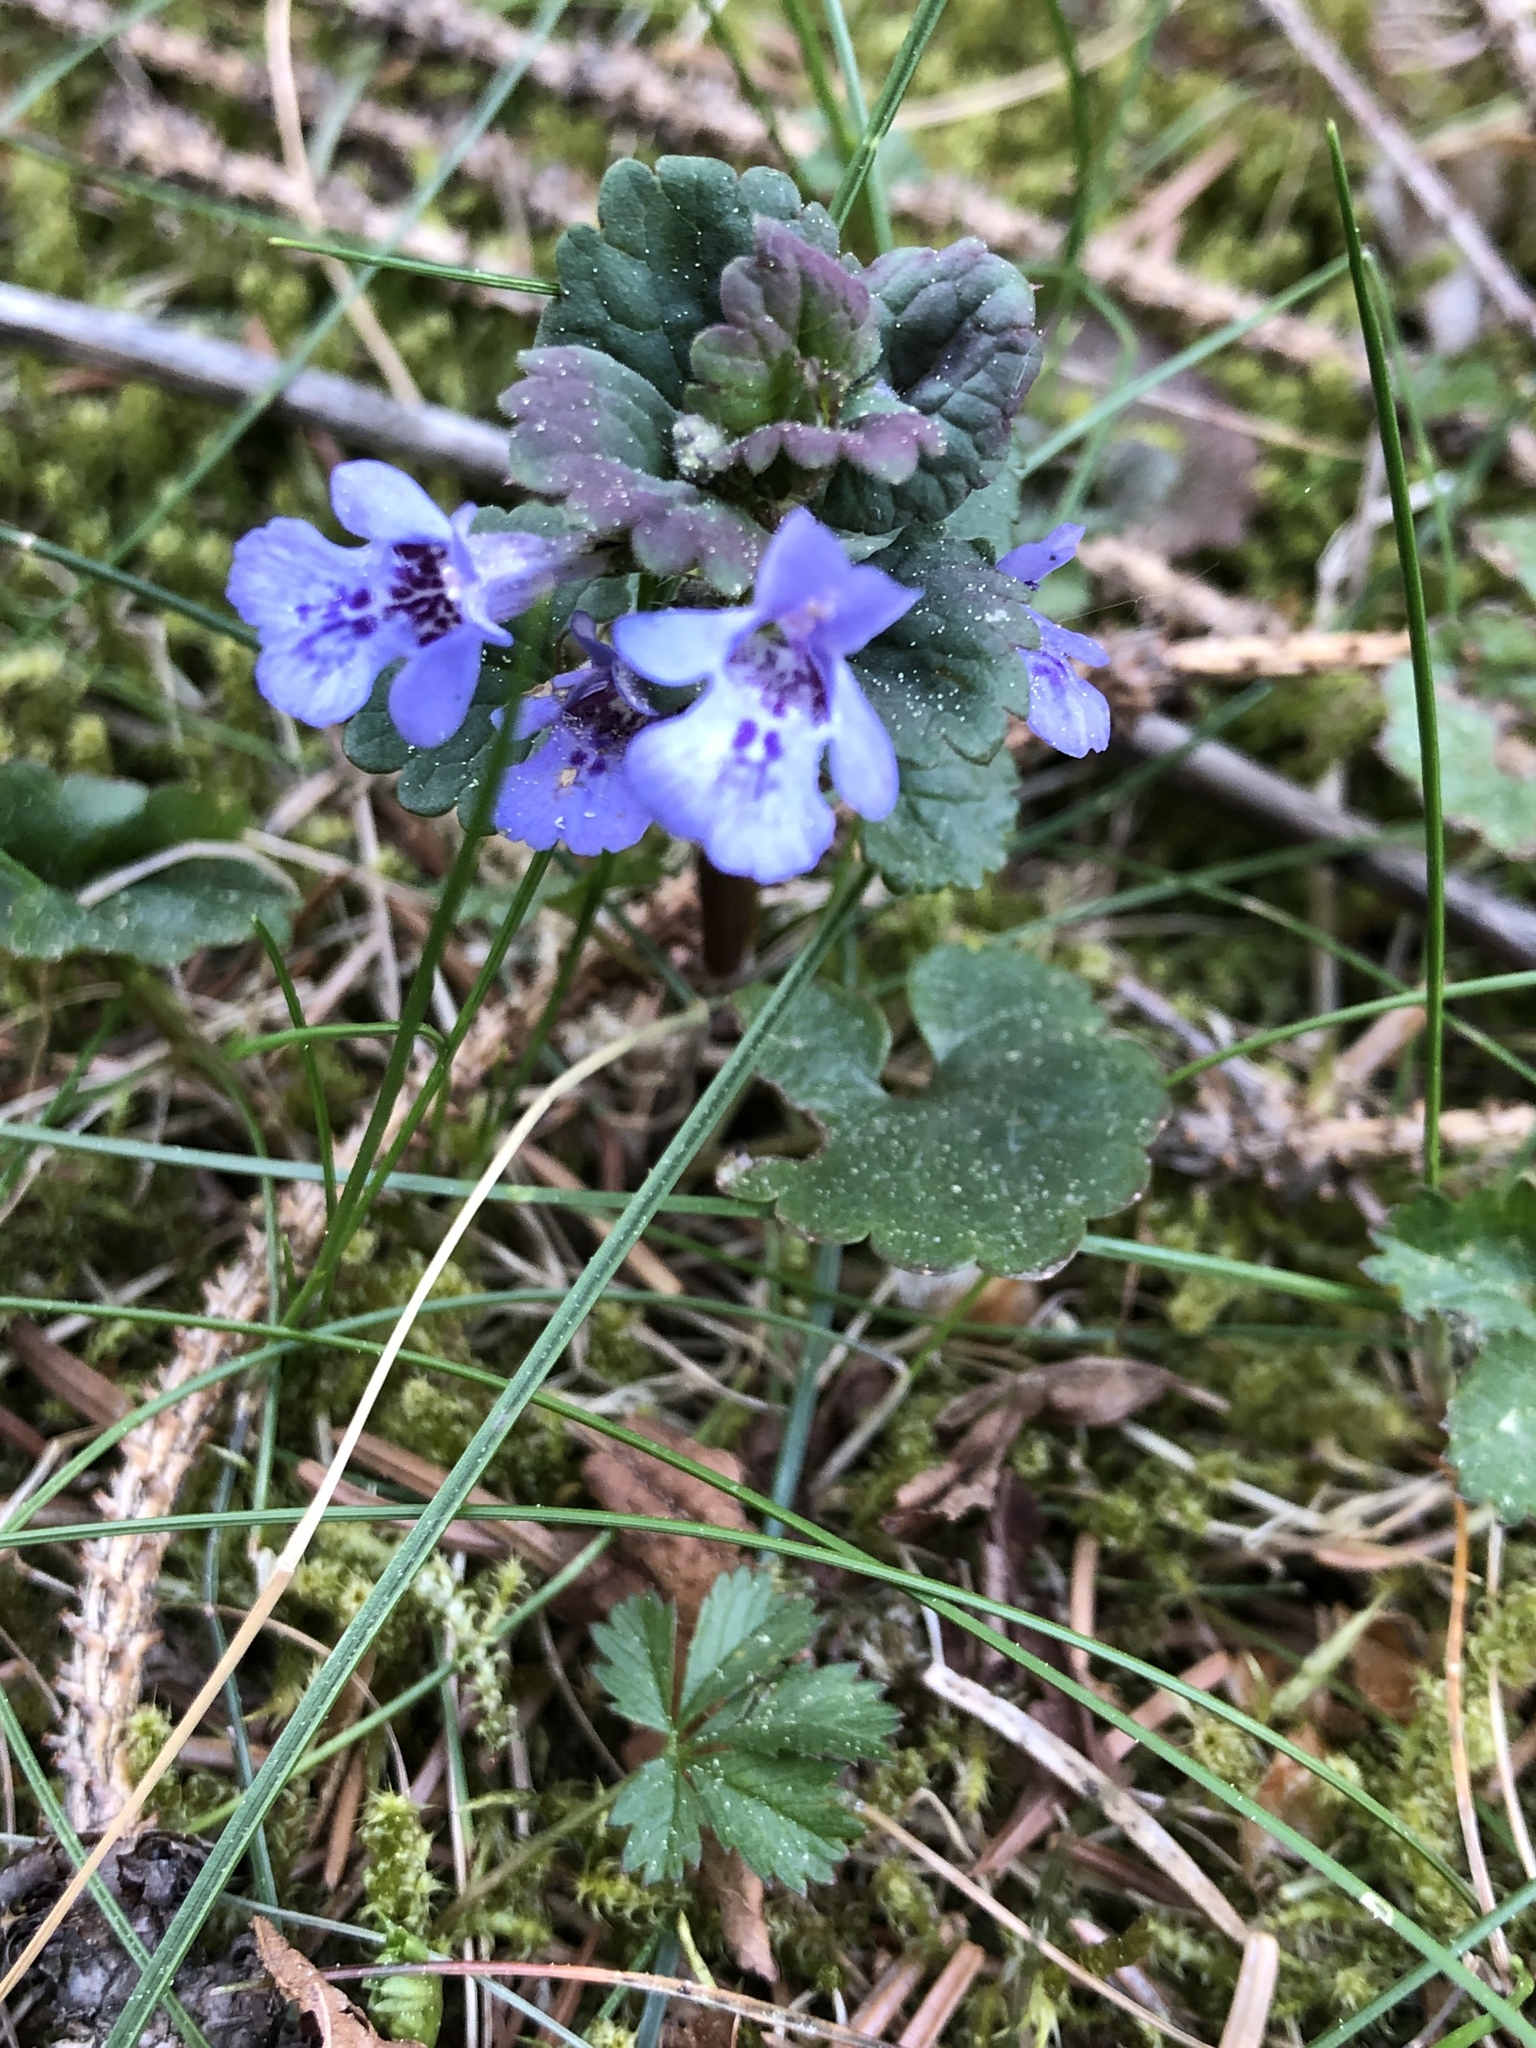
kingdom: Plantae
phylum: Tracheophyta
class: Magnoliopsida
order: Lamiales
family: Lamiaceae
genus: Glechoma
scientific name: Glechoma hederacea
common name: Ground ivy
